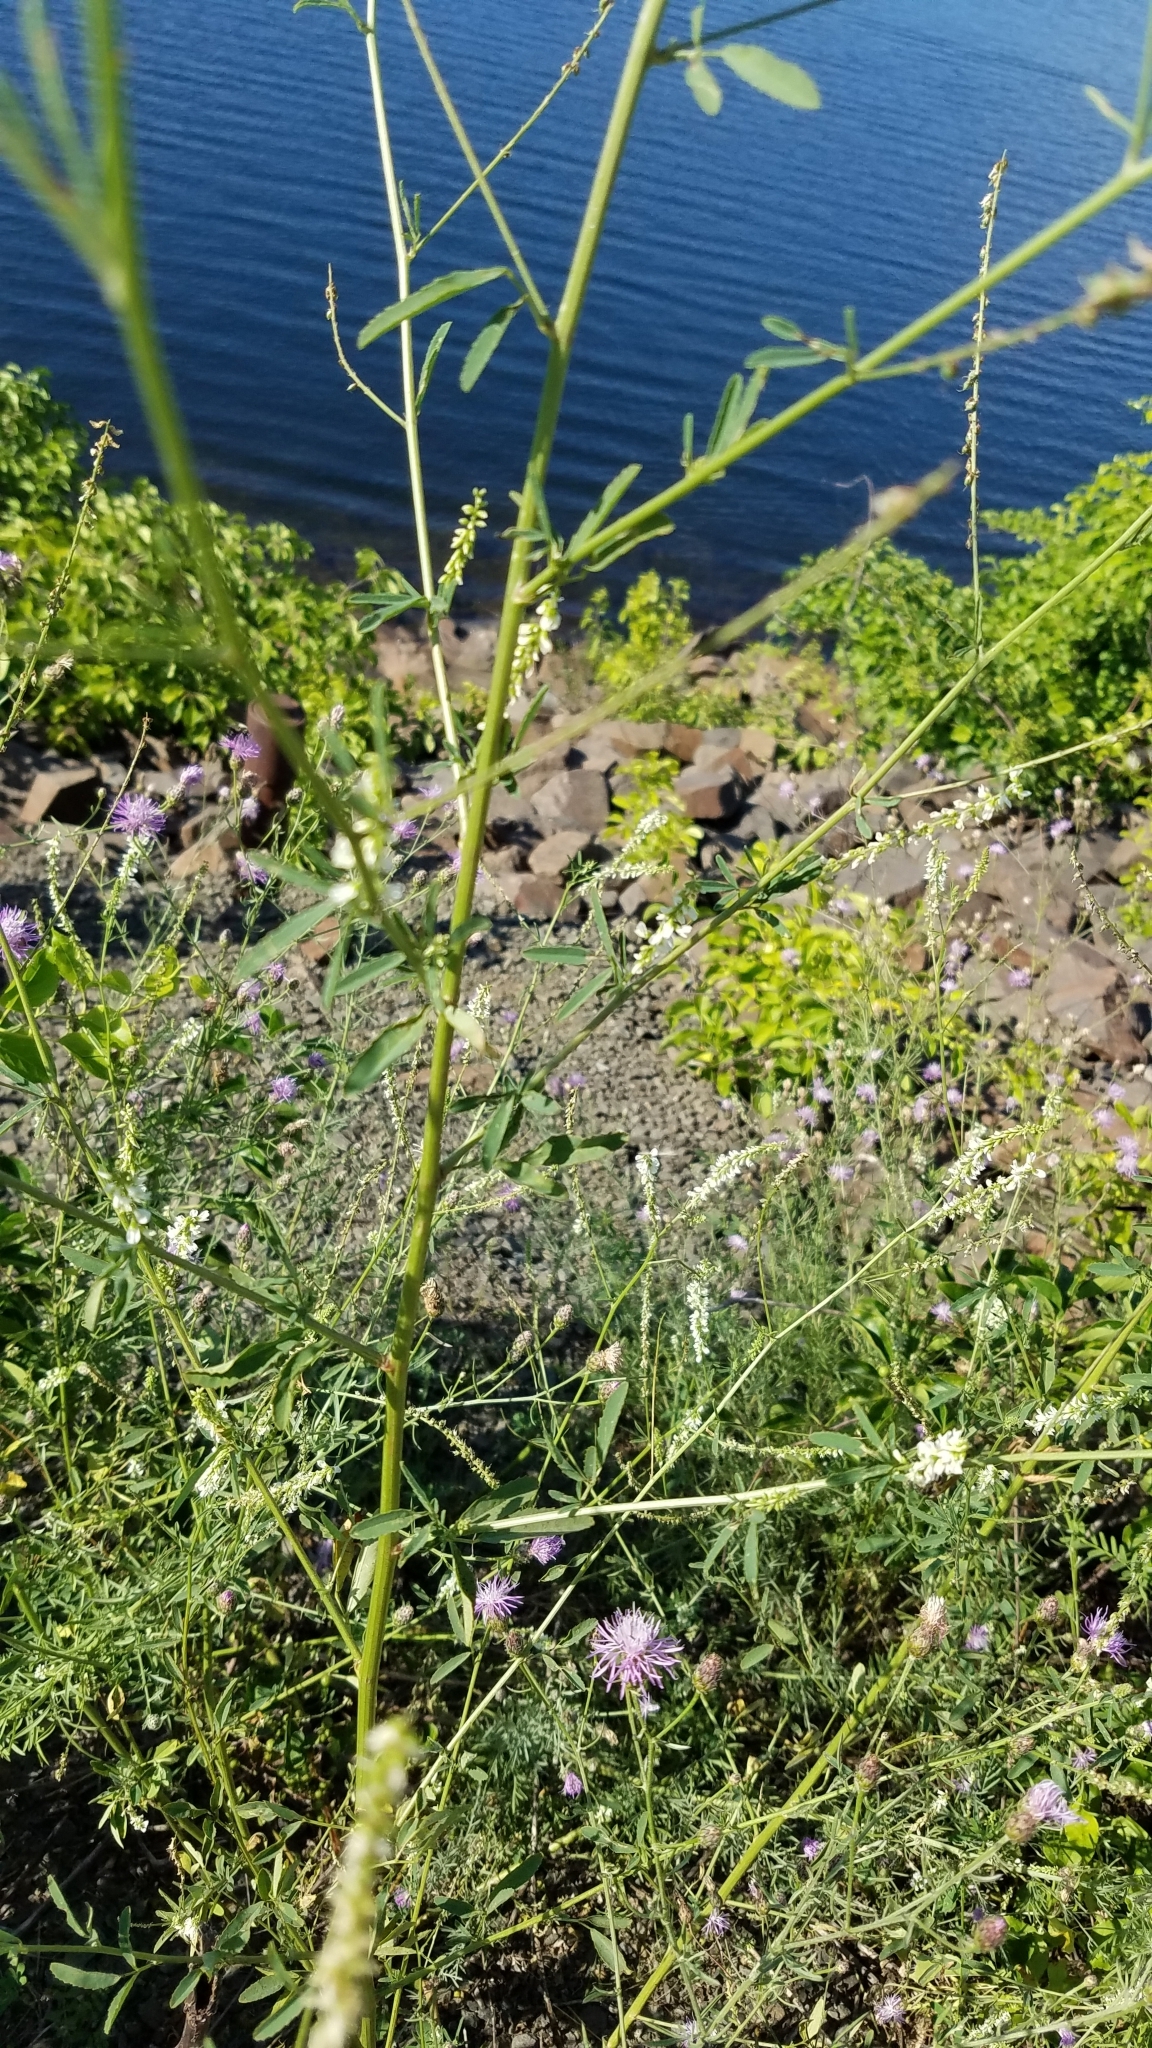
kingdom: Plantae
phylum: Tracheophyta
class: Magnoliopsida
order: Fabales
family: Fabaceae
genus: Melilotus
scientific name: Melilotus albus
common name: White melilot
